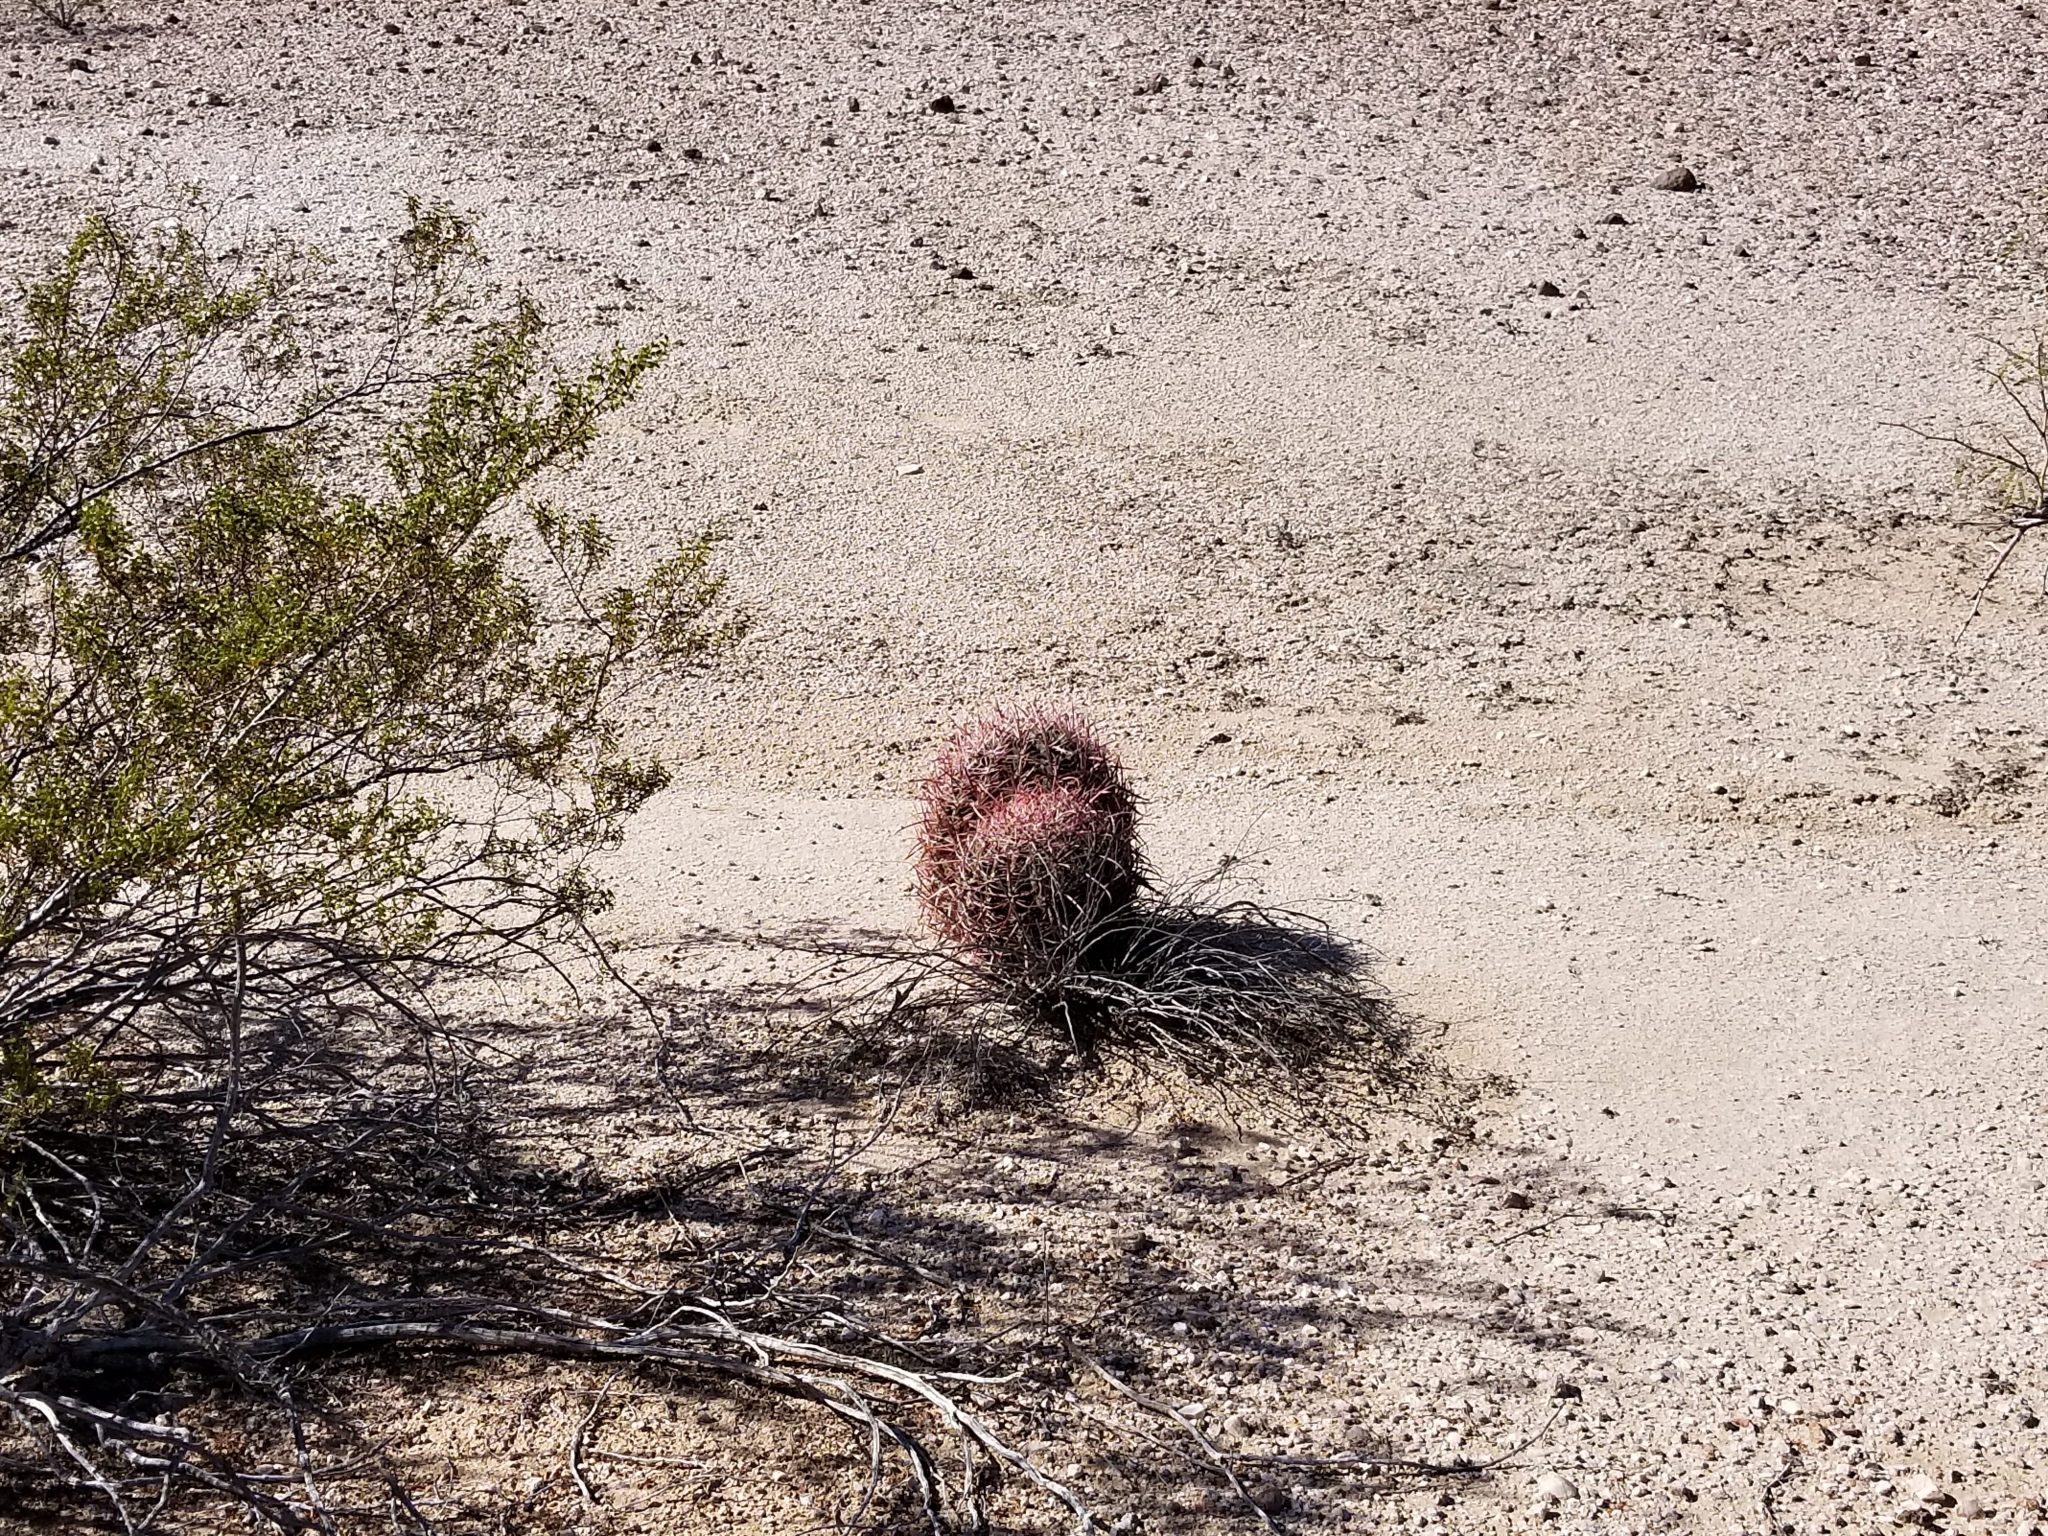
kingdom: Plantae
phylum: Tracheophyta
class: Magnoliopsida
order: Caryophyllales
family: Cactaceae
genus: Ferocactus
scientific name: Ferocactus cylindraceus
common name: California barrel cactus
